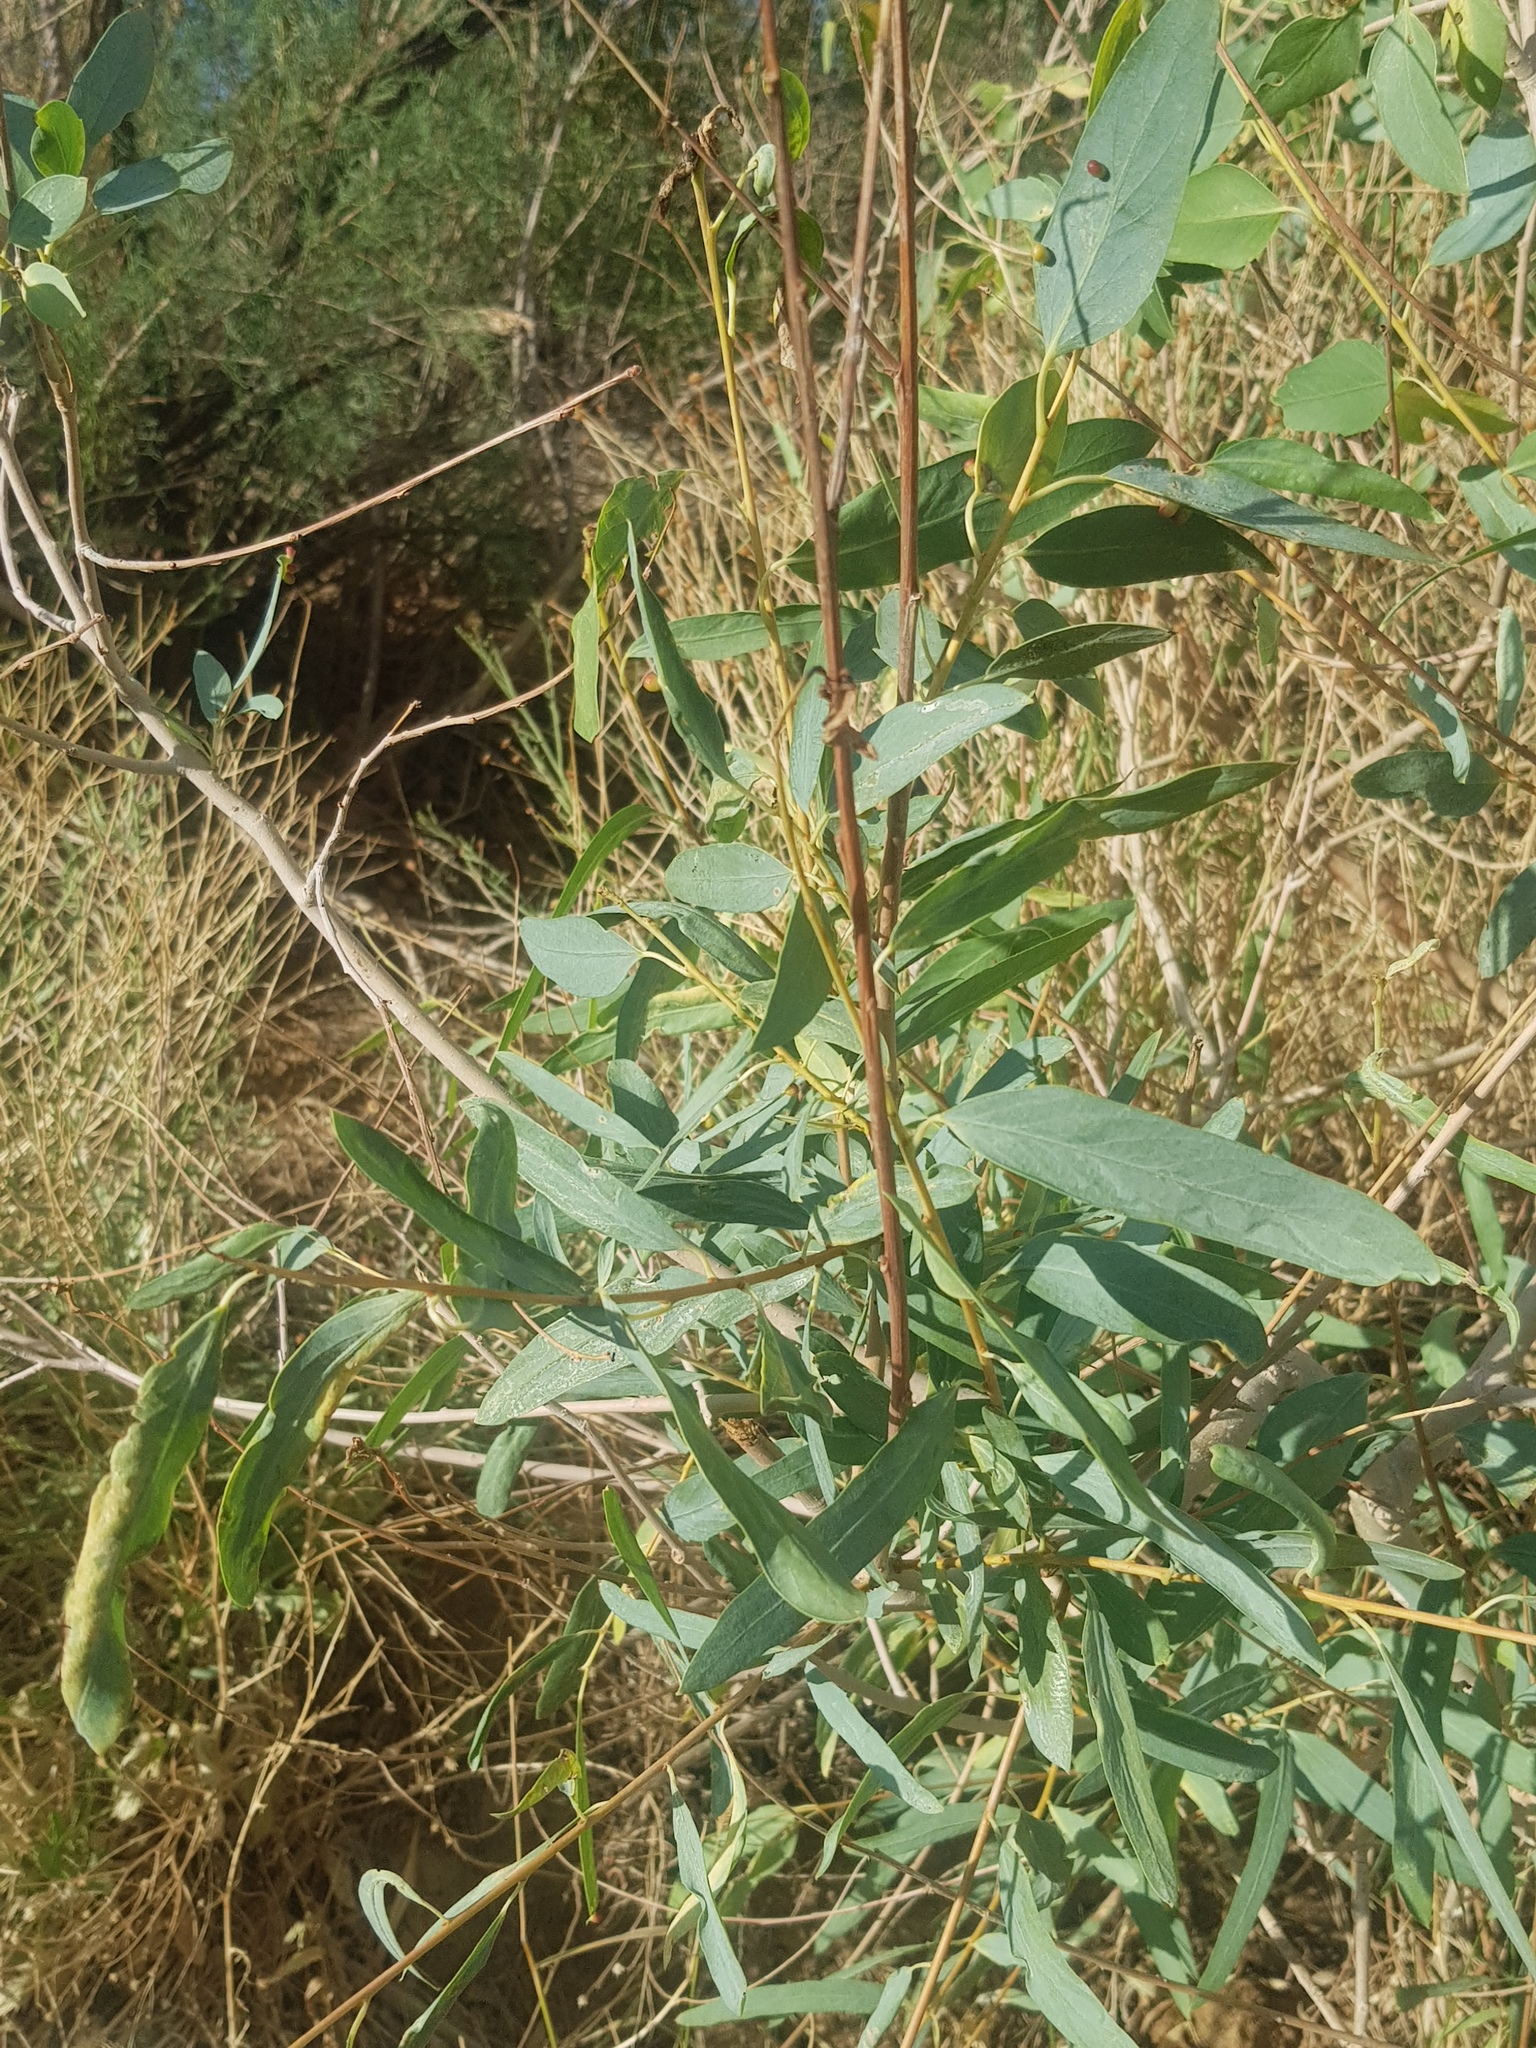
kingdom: Plantae
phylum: Tracheophyta
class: Magnoliopsida
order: Malpighiales
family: Salicaceae
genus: Populus
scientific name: Populus euphratica
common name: Euphrates poplar
